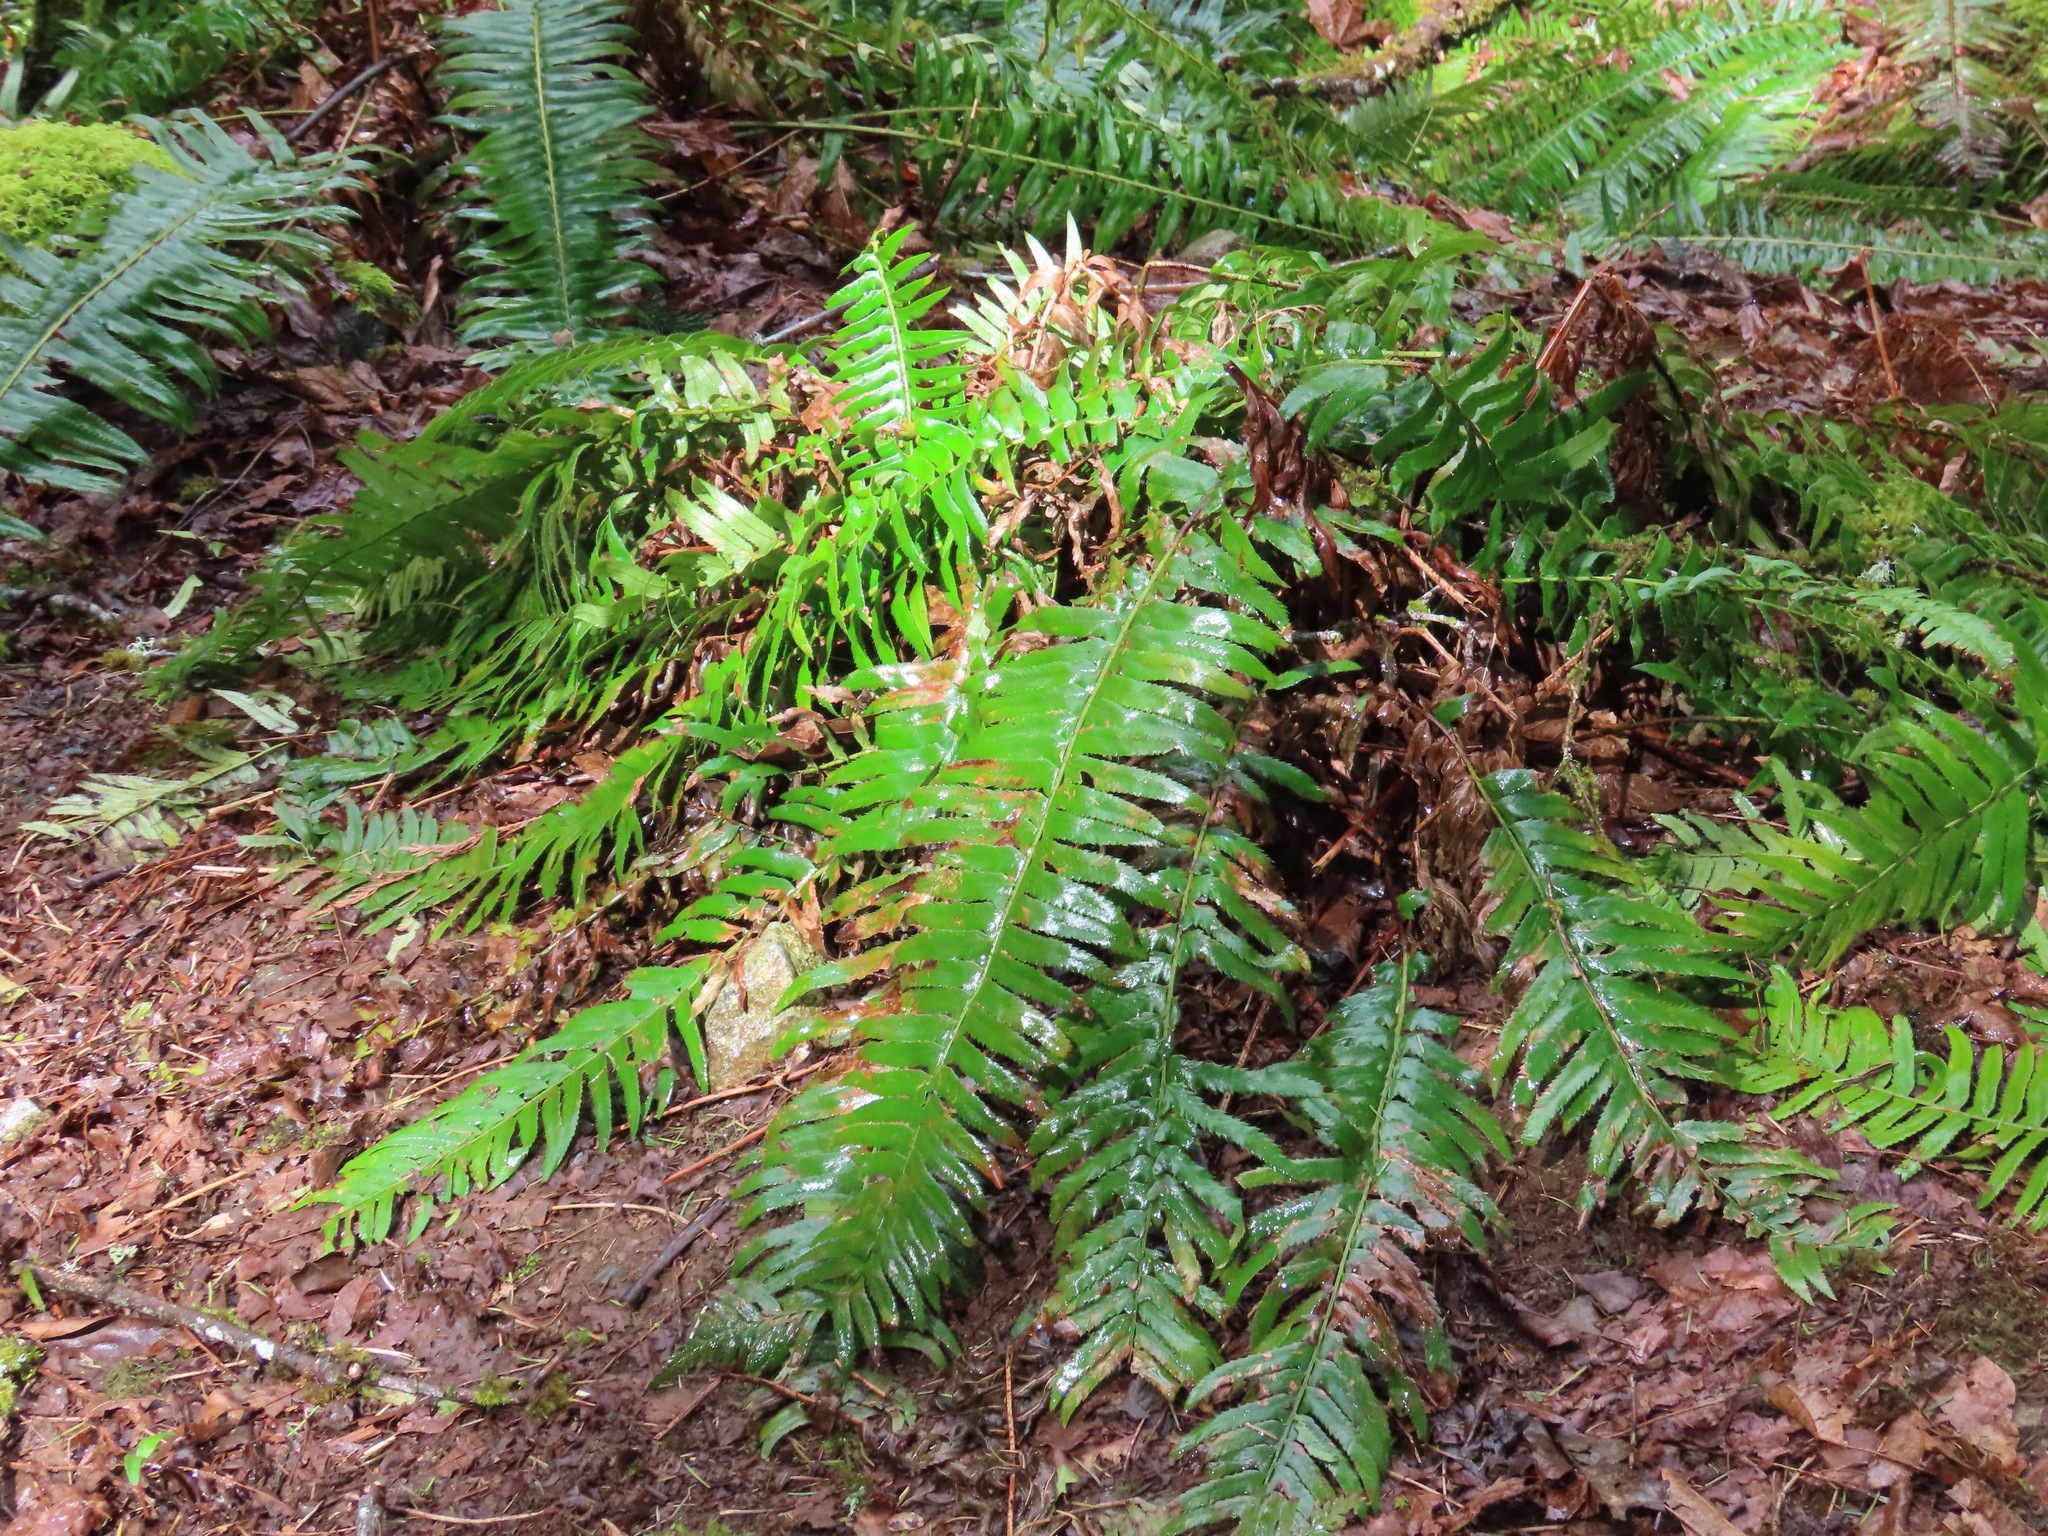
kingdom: Plantae
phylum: Tracheophyta
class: Polypodiopsida
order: Polypodiales
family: Dryopteridaceae
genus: Polystichum
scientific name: Polystichum munitum
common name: Western sword-fern
